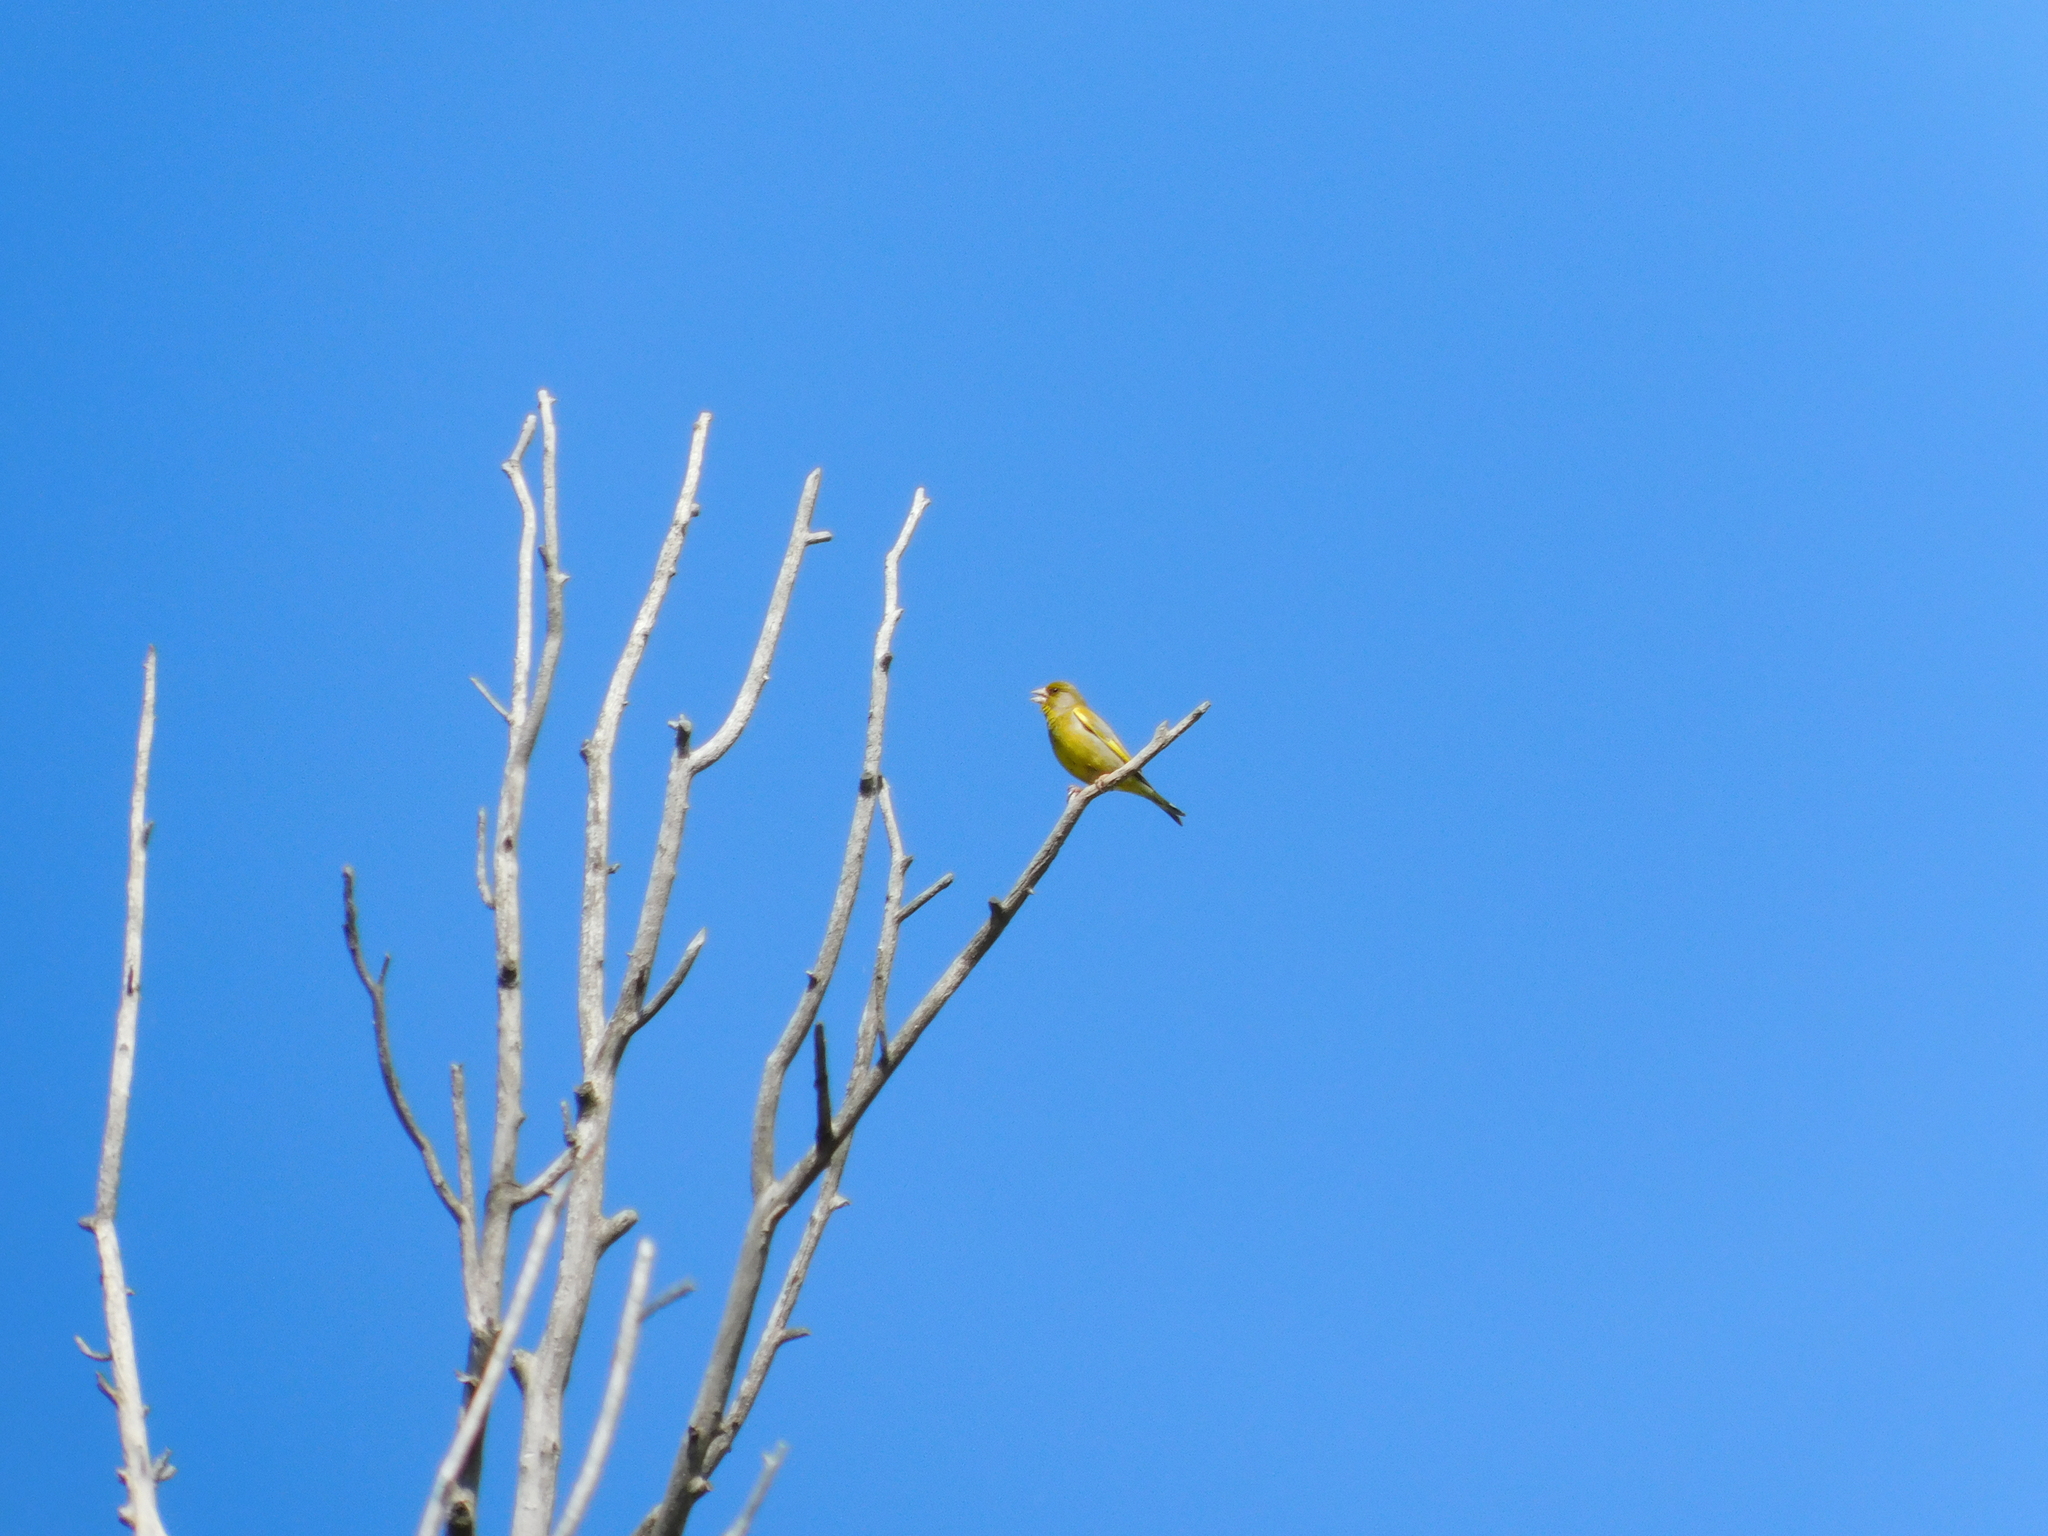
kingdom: Plantae
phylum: Tracheophyta
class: Liliopsida
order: Poales
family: Poaceae
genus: Chloris
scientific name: Chloris chloris
